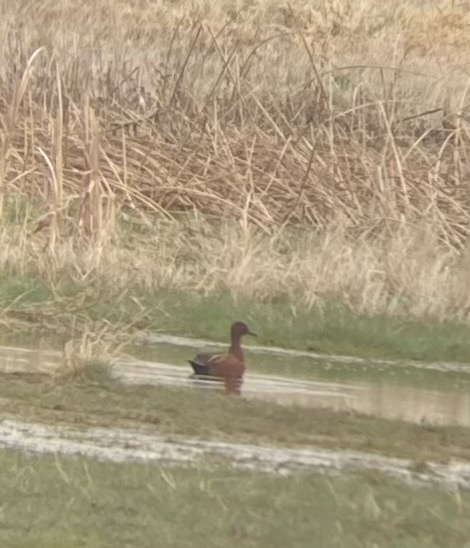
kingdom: Animalia
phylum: Chordata
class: Aves
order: Anseriformes
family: Anatidae
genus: Spatula
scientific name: Spatula cyanoptera
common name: Cinnamon teal
